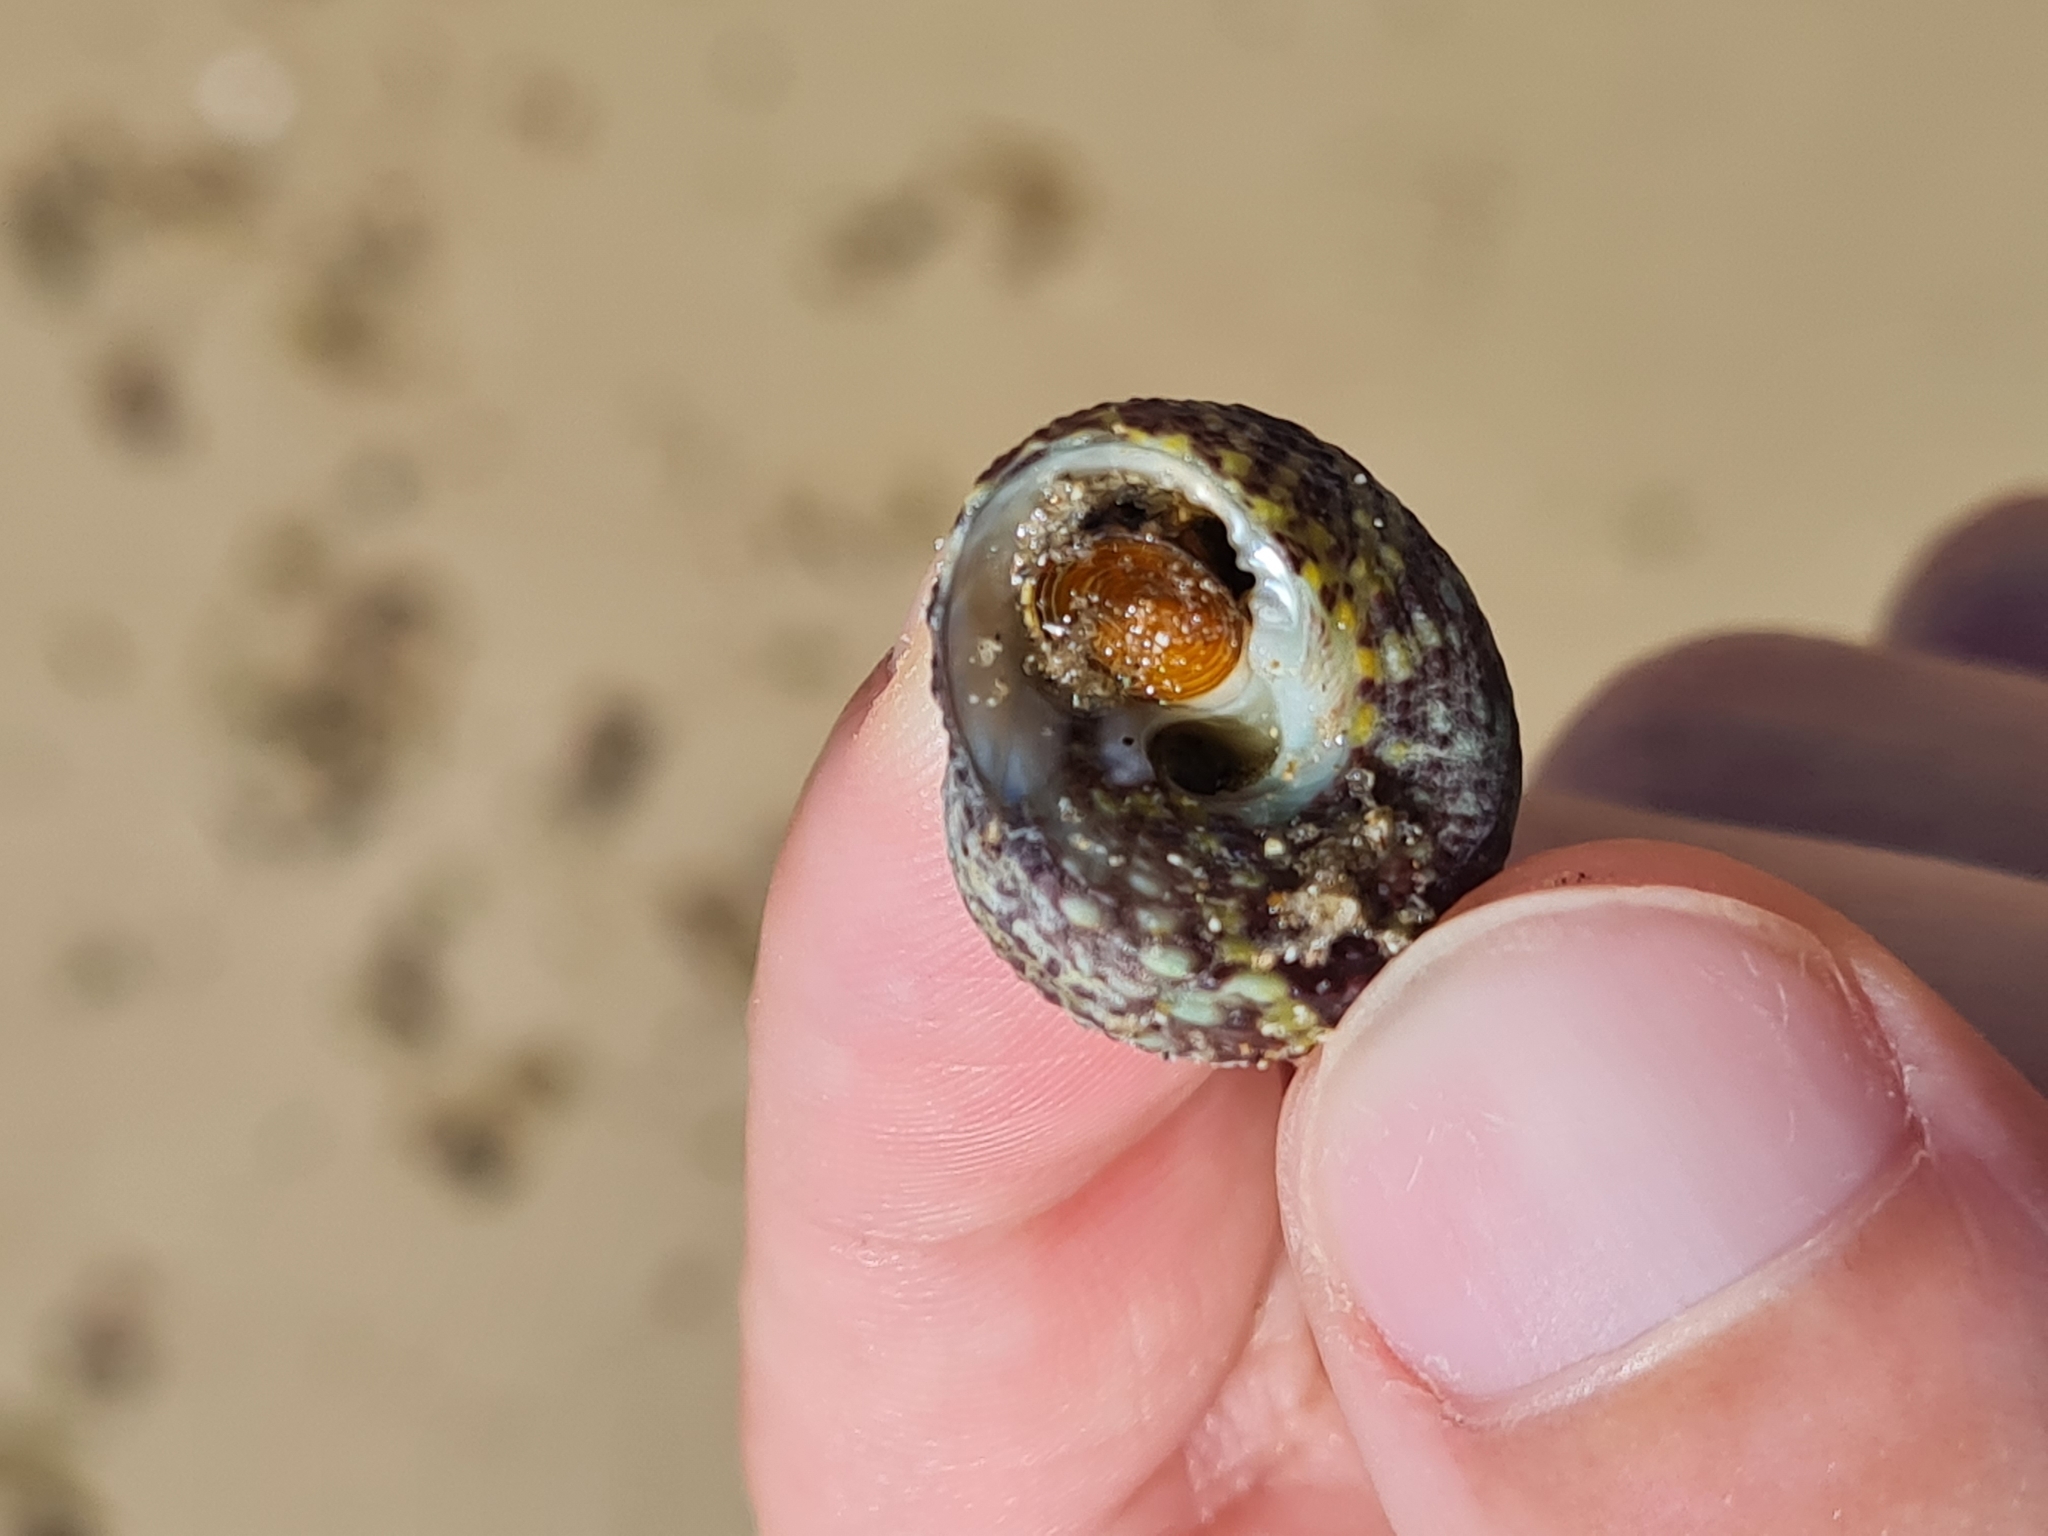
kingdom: Animalia
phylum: Mollusca
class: Gastropoda
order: Trochida
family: Tegulidae
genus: Agathistoma
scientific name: Agathistoma viridulum
